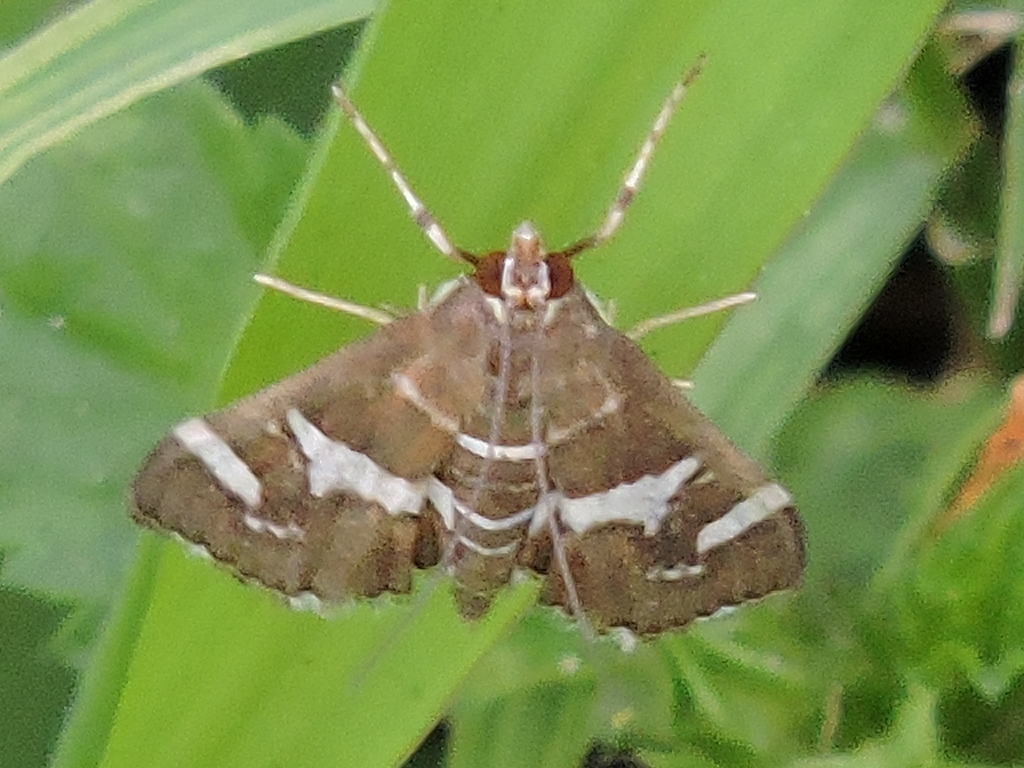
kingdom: Animalia
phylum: Arthropoda
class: Insecta
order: Lepidoptera
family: Crambidae
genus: Spoladea
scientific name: Spoladea recurvalis
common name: Beet webworm moth
